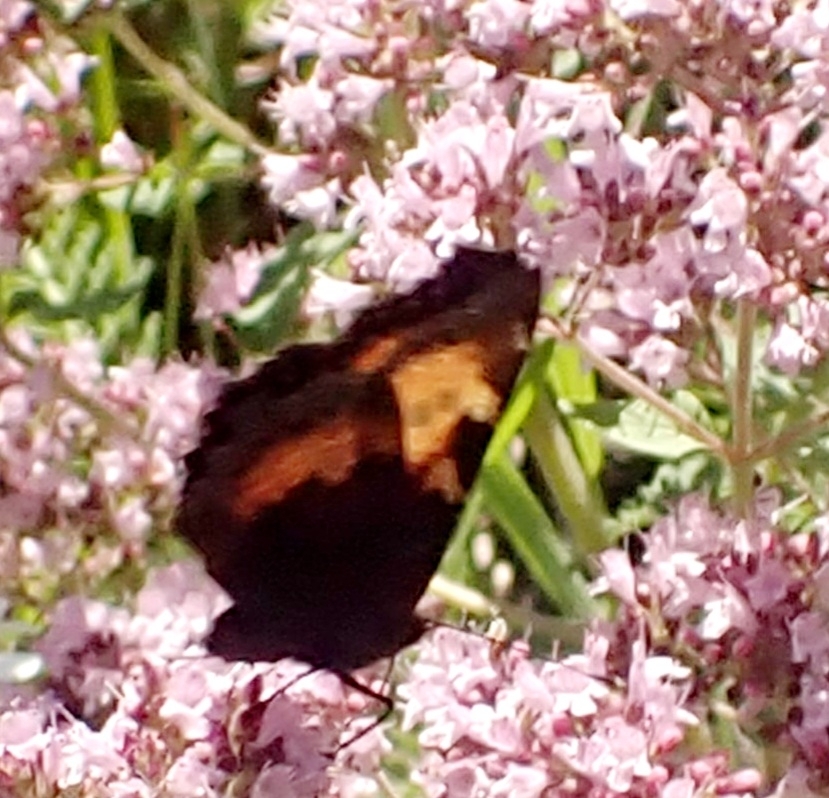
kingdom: Animalia
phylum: Arthropoda
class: Insecta
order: Lepidoptera
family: Nymphalidae
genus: Aglais
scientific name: Aglais urticae
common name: Small tortoiseshell
